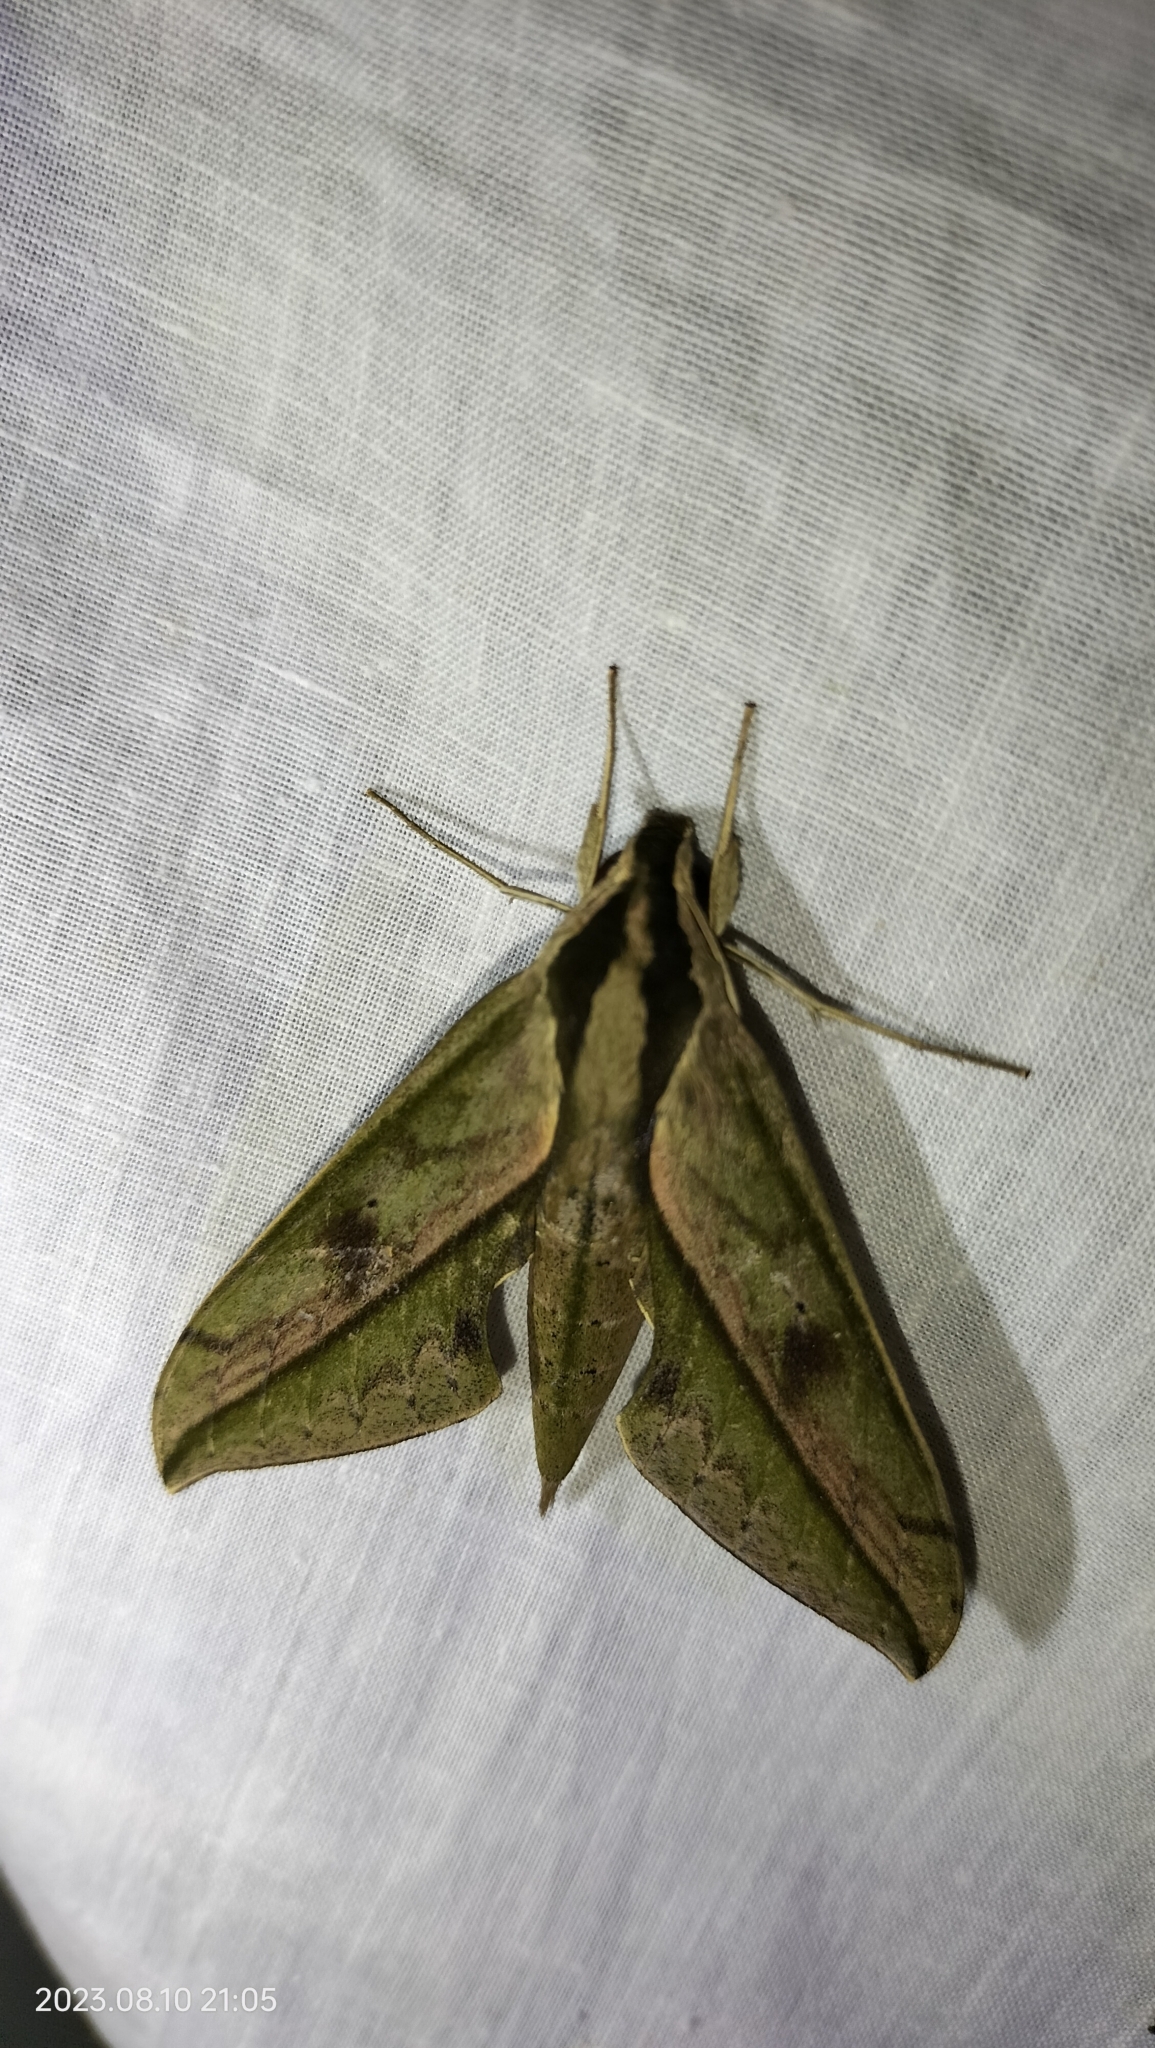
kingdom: Animalia
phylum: Arthropoda
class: Insecta
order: Lepidoptera
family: Sphingidae
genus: Xylophanes
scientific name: Xylophanes docilis
